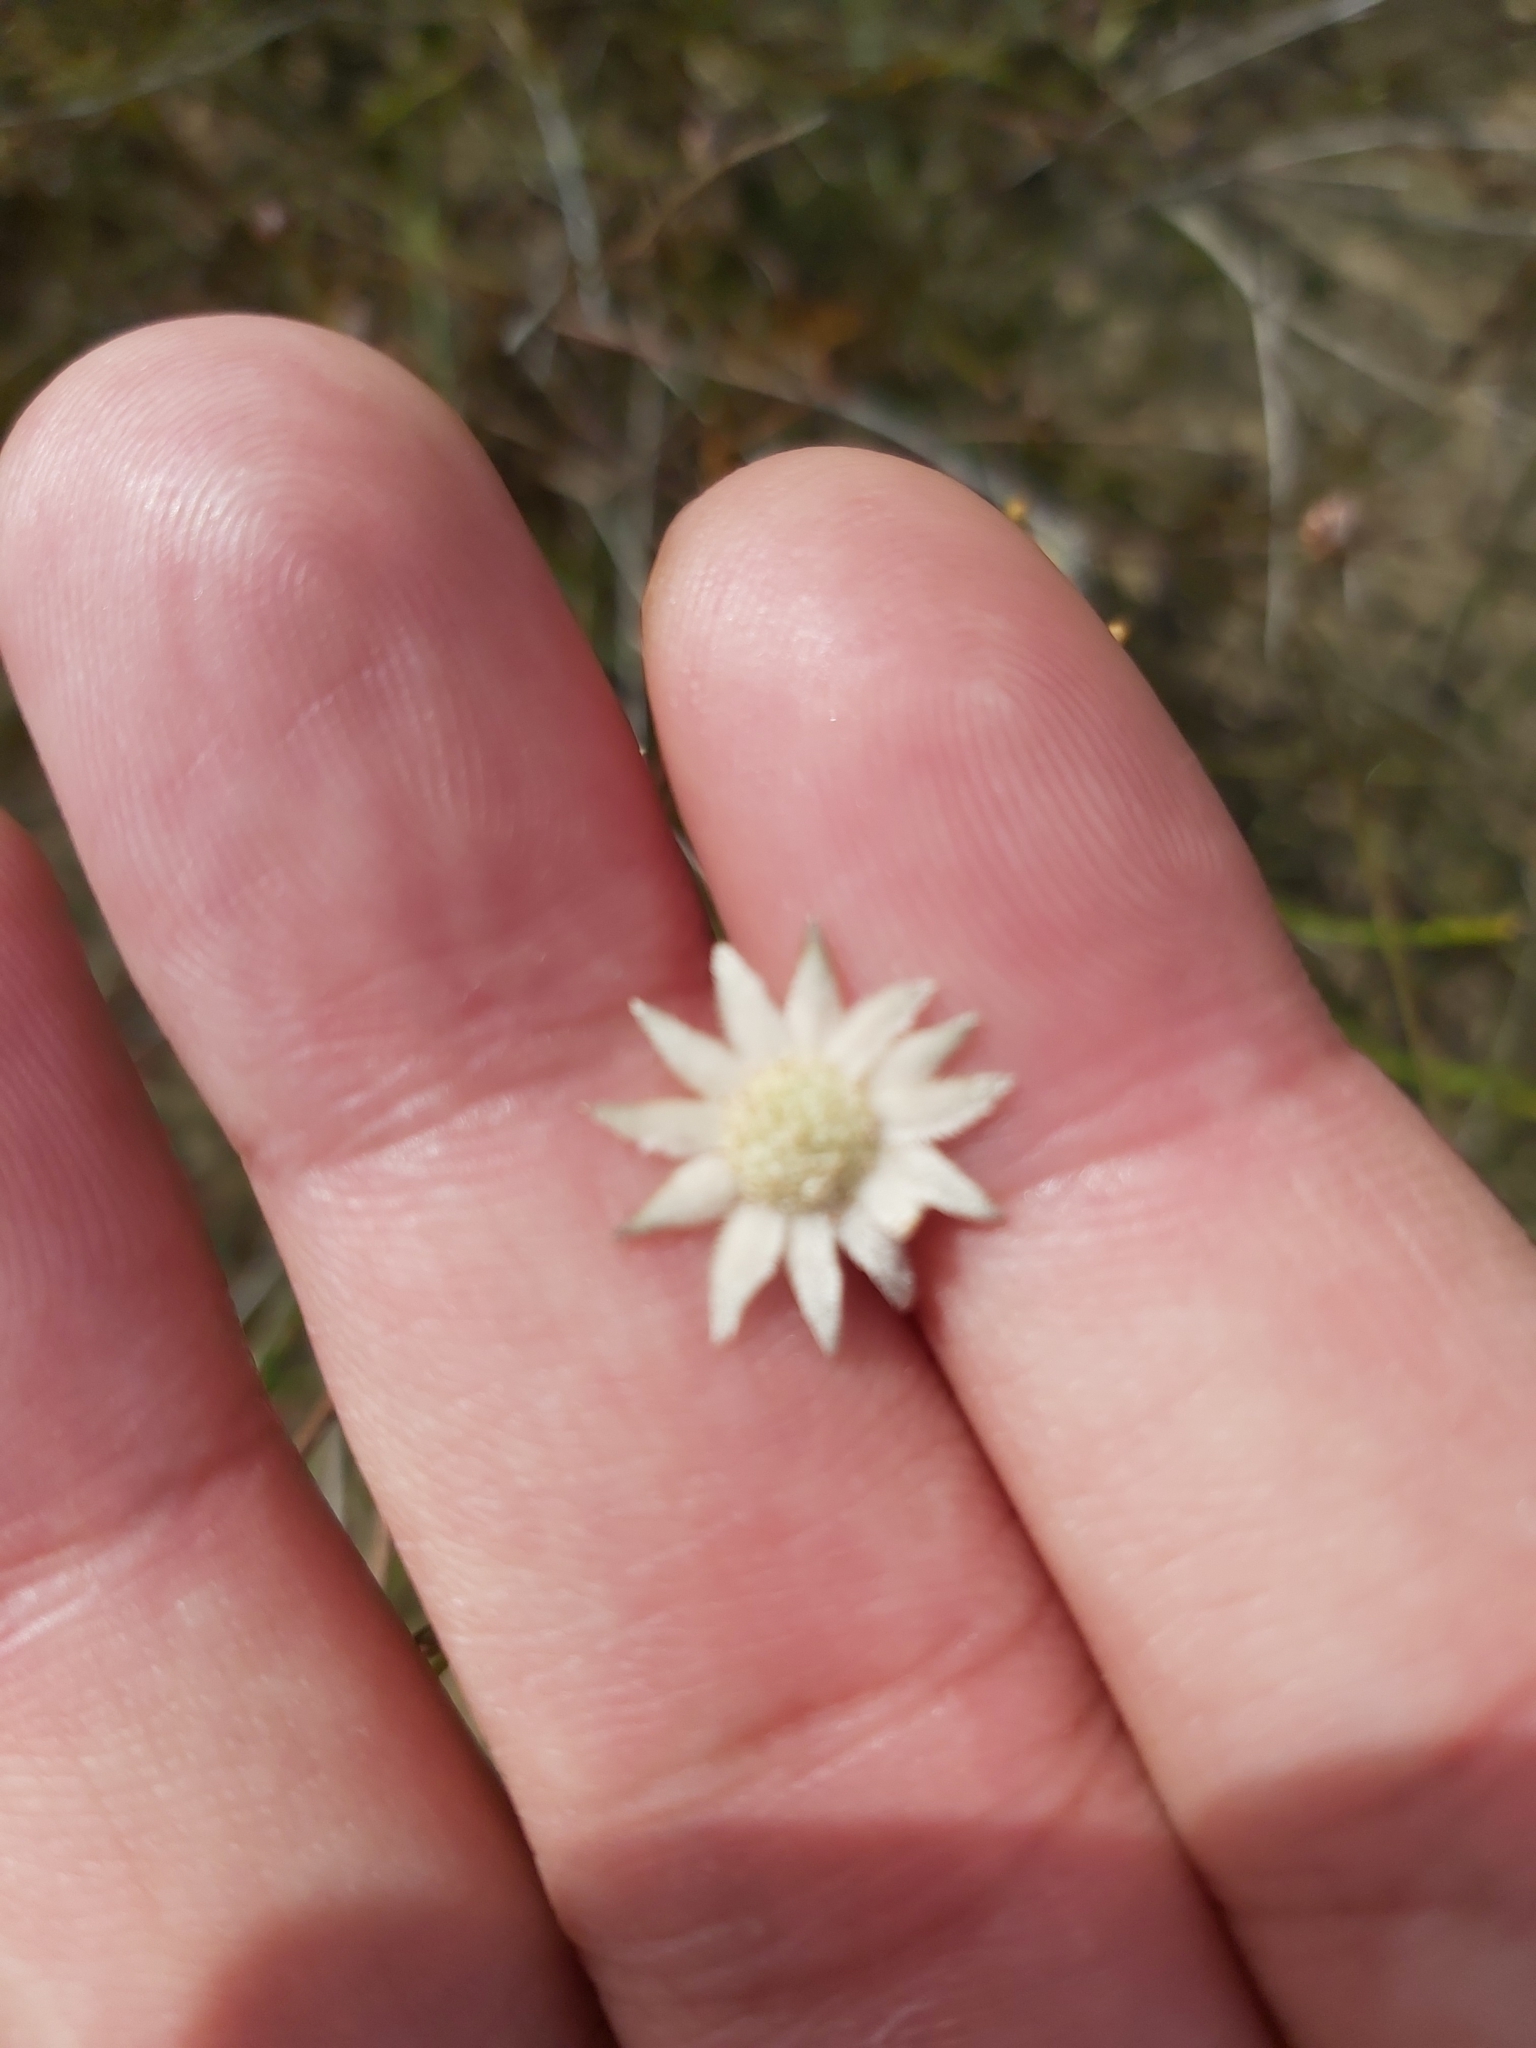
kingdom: Plantae
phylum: Tracheophyta
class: Magnoliopsida
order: Apiales
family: Apiaceae
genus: Actinotus
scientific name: Actinotus minor
